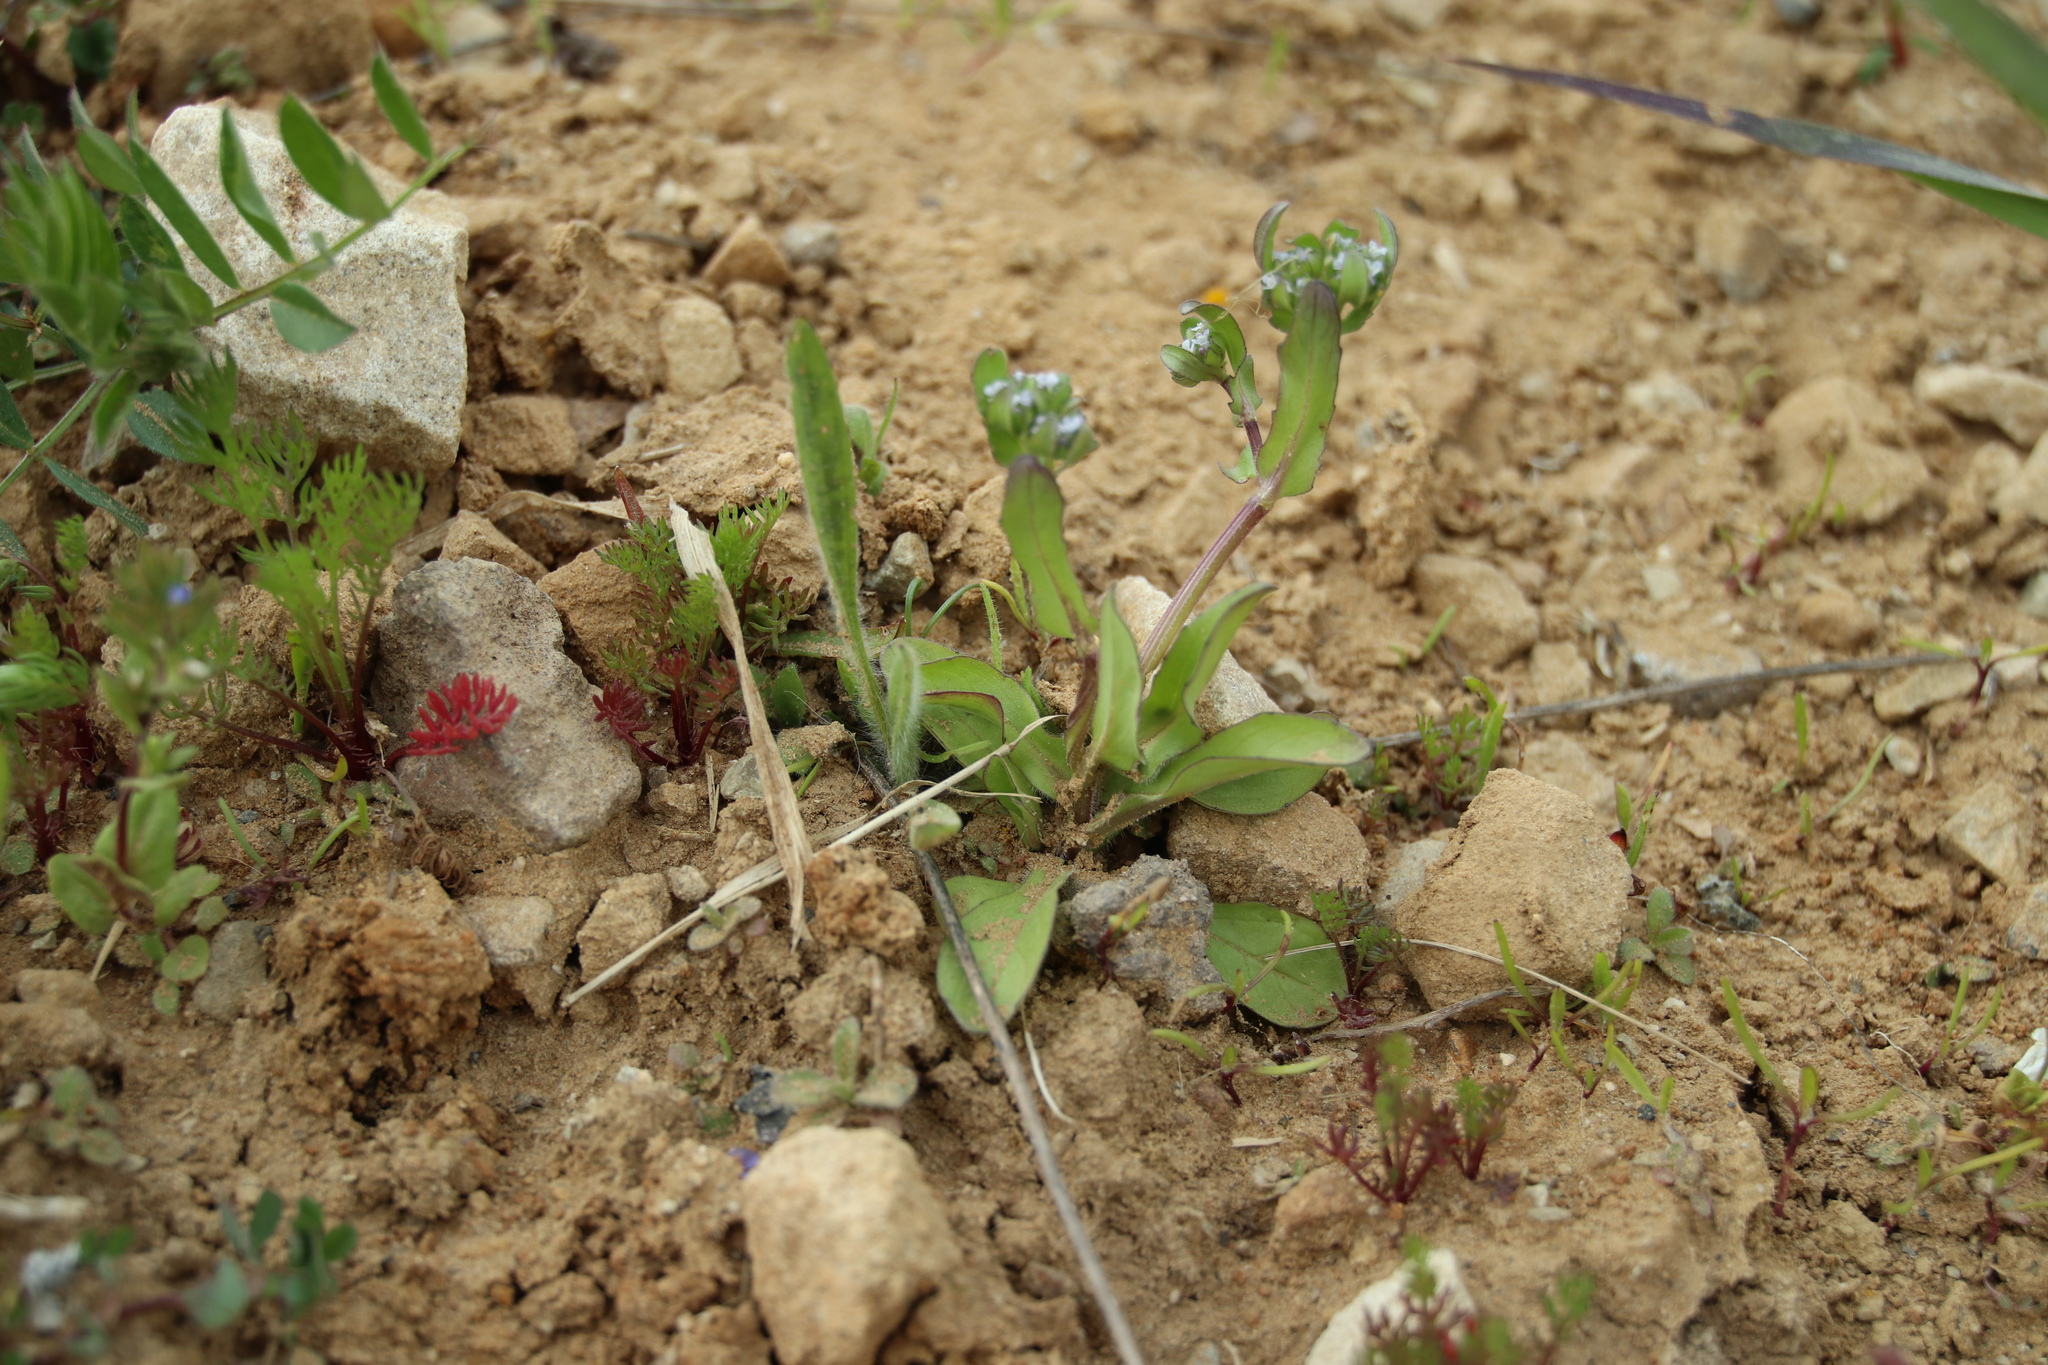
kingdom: Plantae
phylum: Tracheophyta
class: Magnoliopsida
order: Dipsacales
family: Caprifoliaceae
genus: Valerianella
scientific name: Valerianella locusta
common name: Common cornsalad
